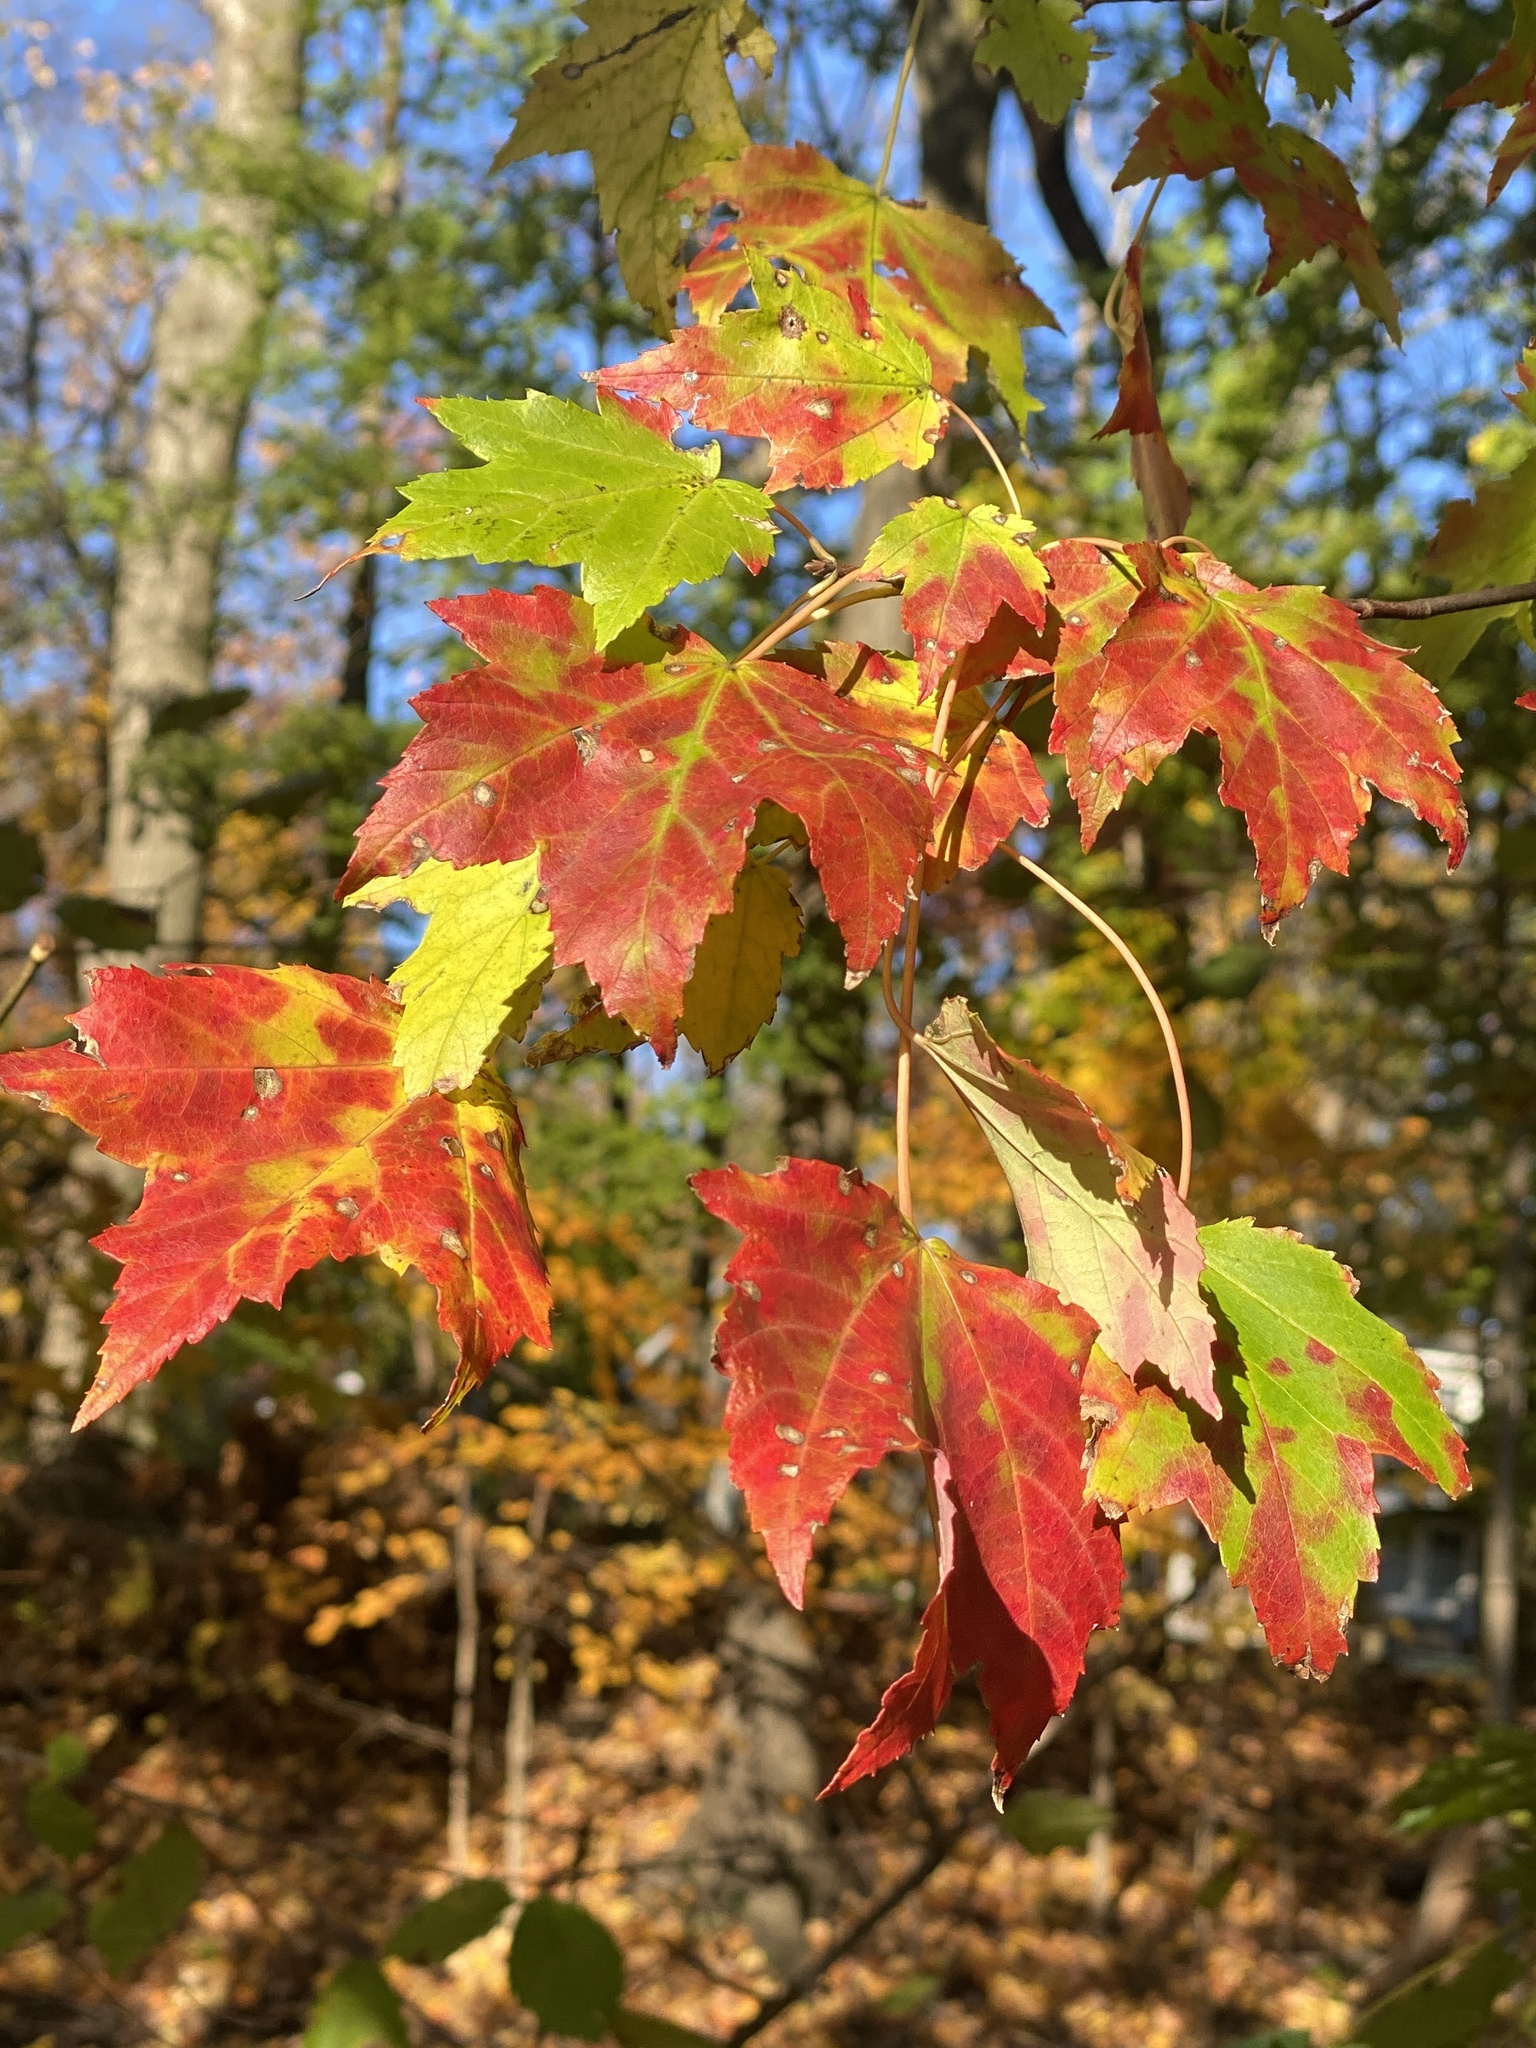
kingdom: Plantae
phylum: Tracheophyta
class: Magnoliopsida
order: Sapindales
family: Sapindaceae
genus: Acer
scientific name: Acer rubrum
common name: Red maple
